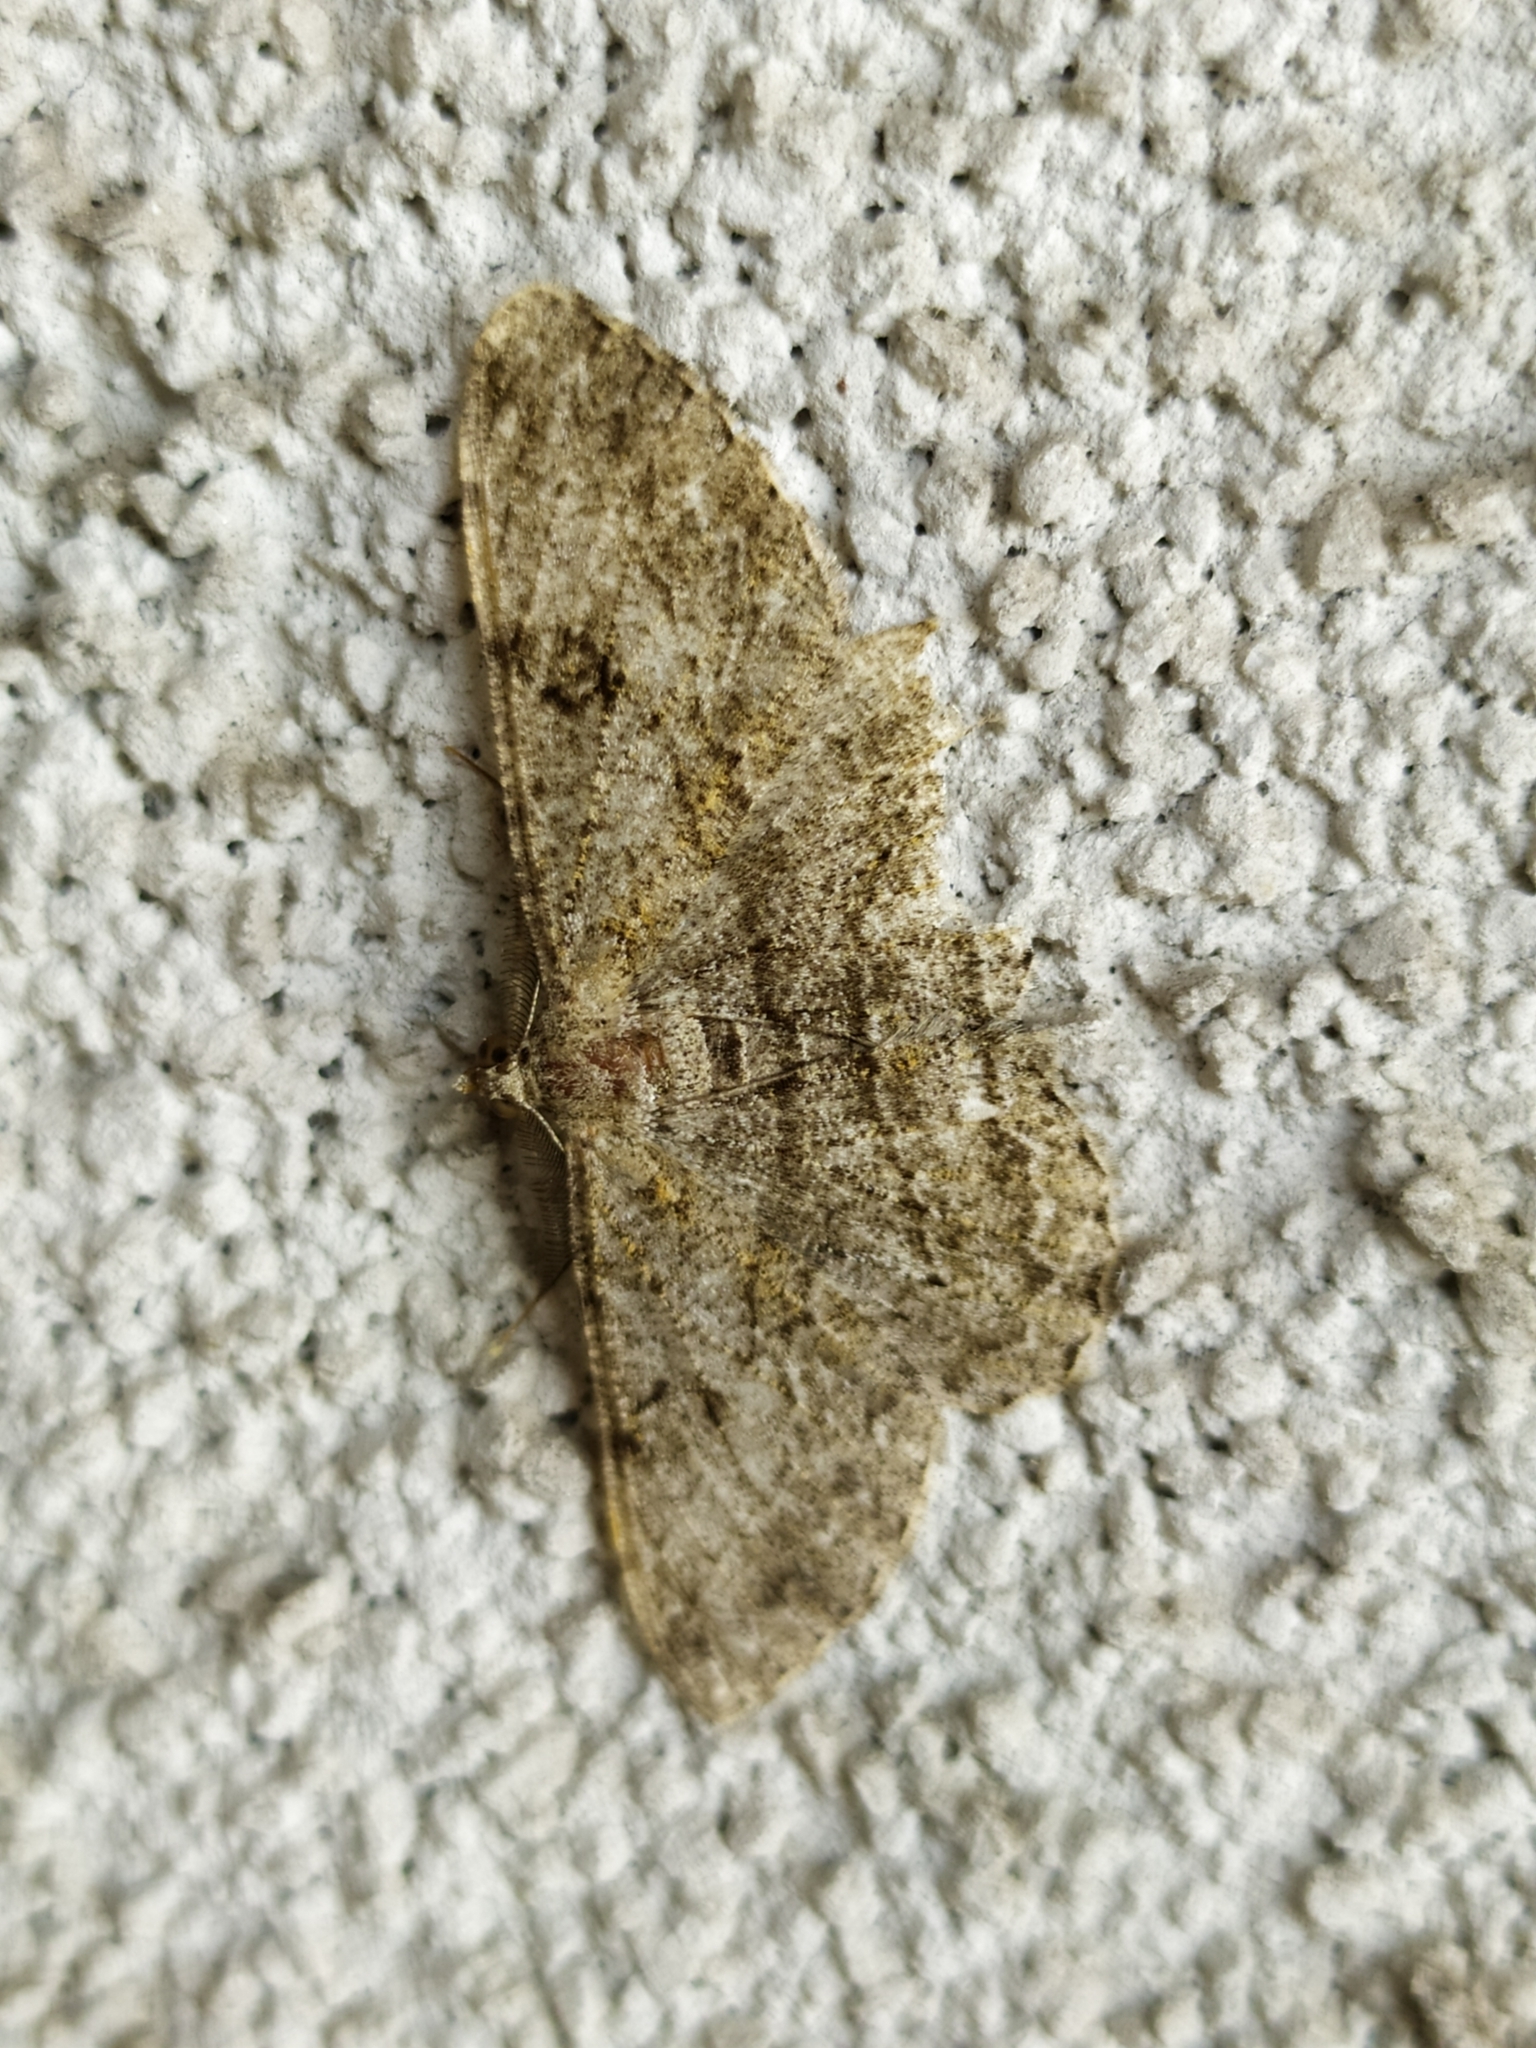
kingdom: Animalia
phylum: Arthropoda
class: Insecta
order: Lepidoptera
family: Geometridae
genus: Peribatodes
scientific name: Peribatodes rhomboidaria
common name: Willow beauty
